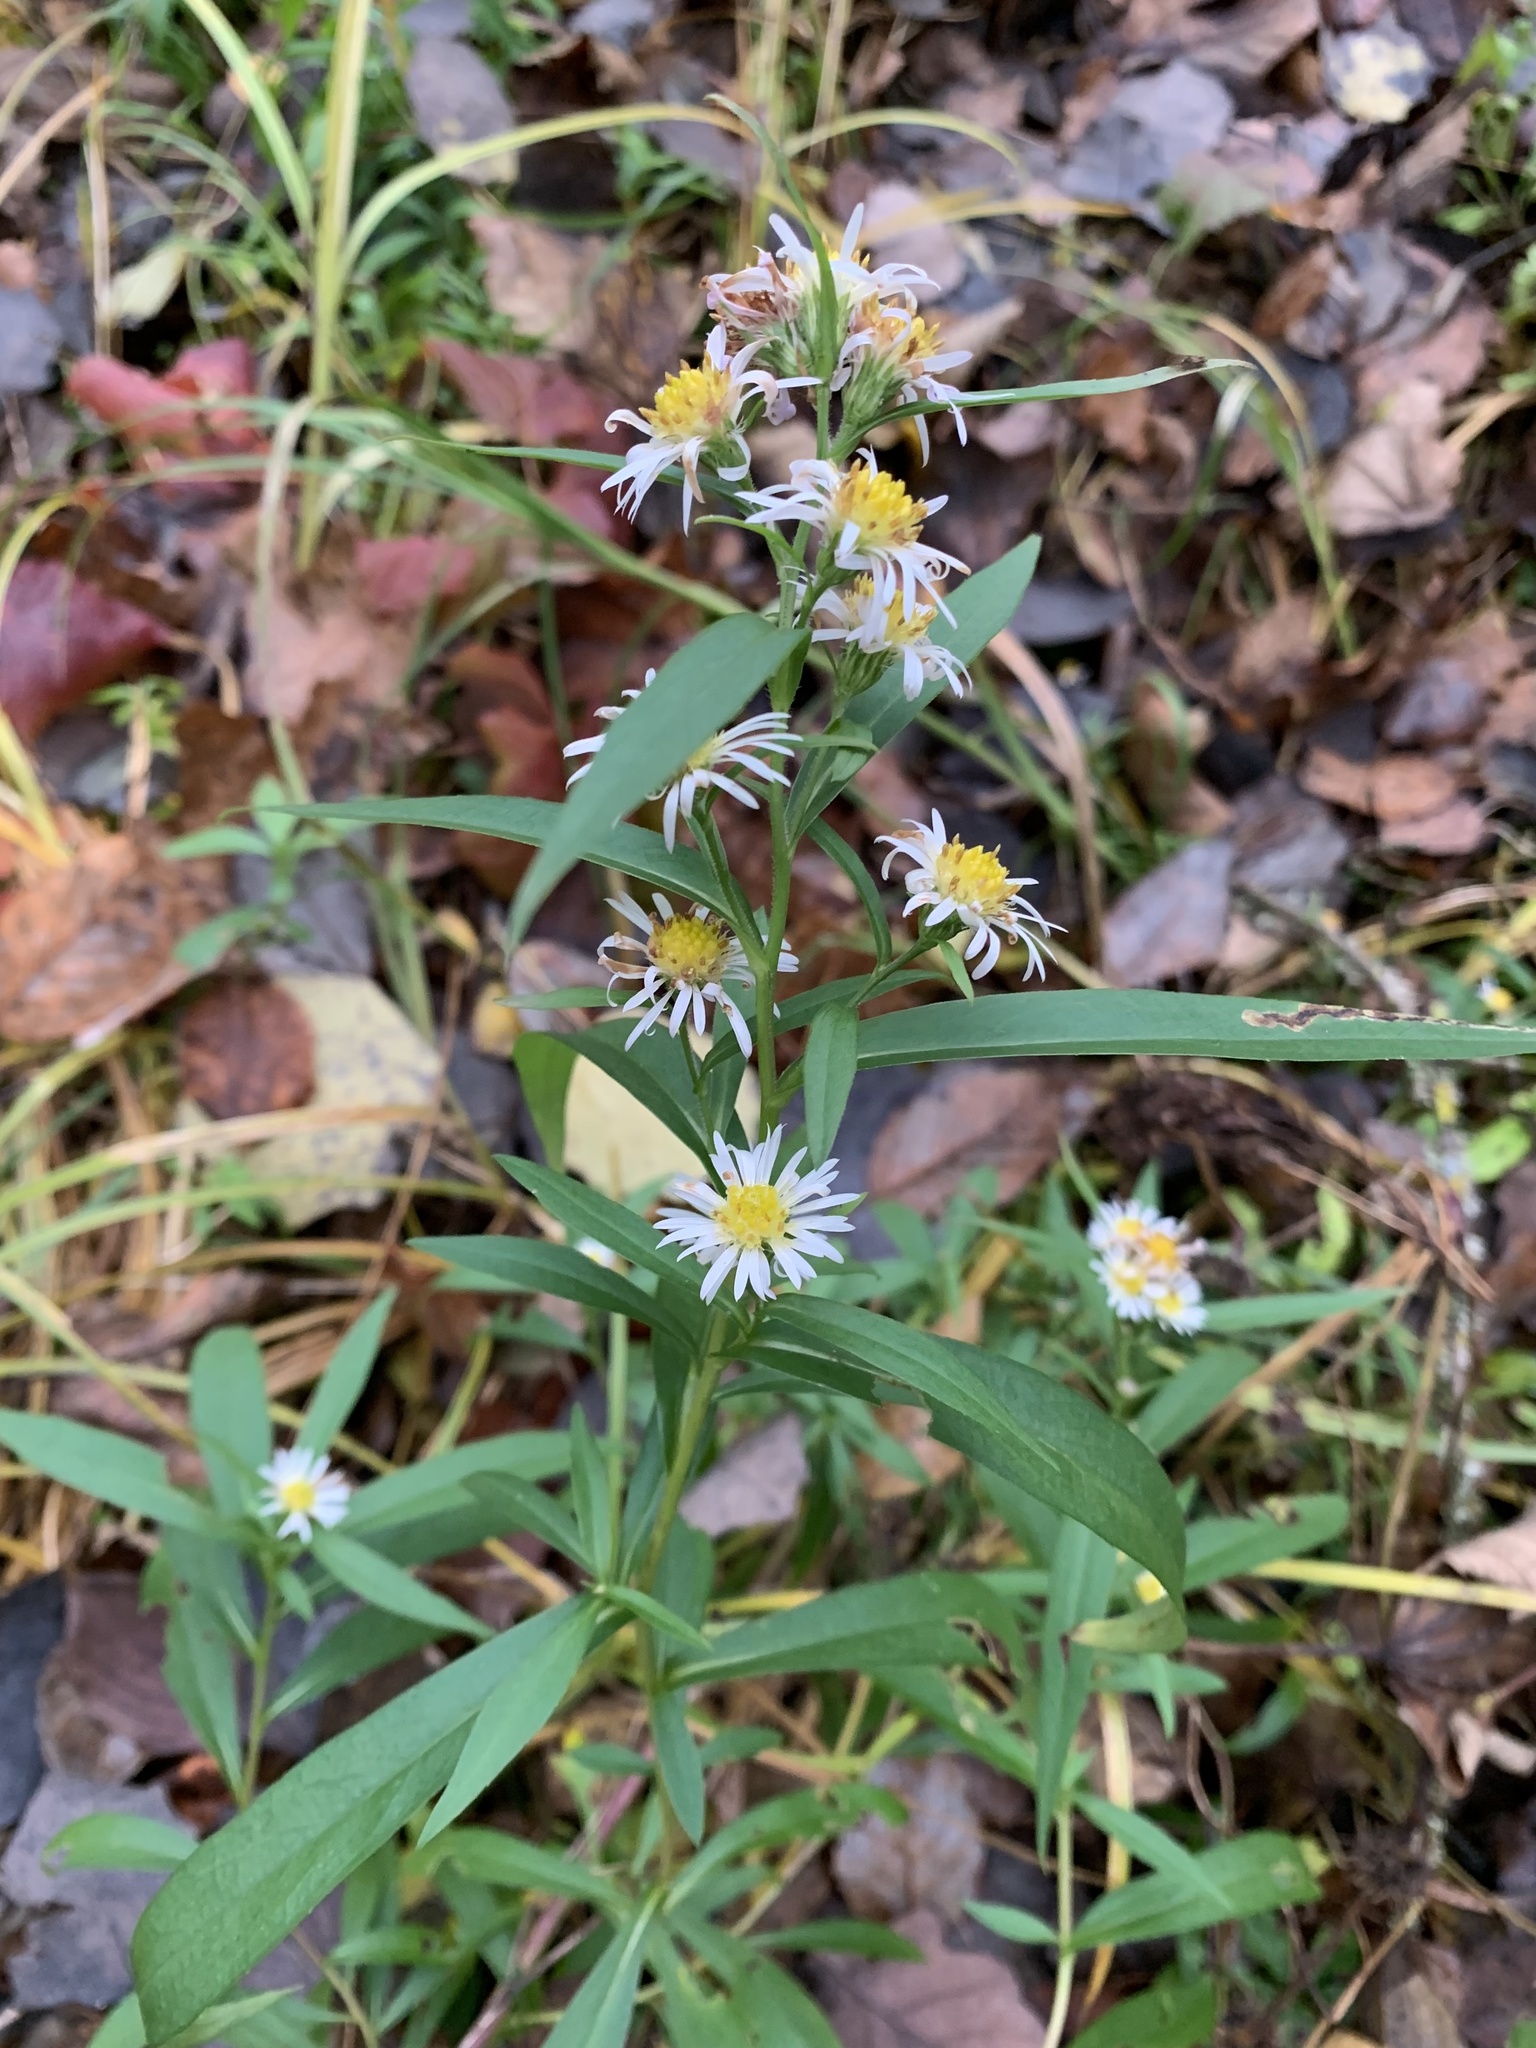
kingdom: Plantae
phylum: Tracheophyta
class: Magnoliopsida
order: Asterales
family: Asteraceae
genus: Symphyotrichum
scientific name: Symphyotrichum lanceolatum
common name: Panicled aster
